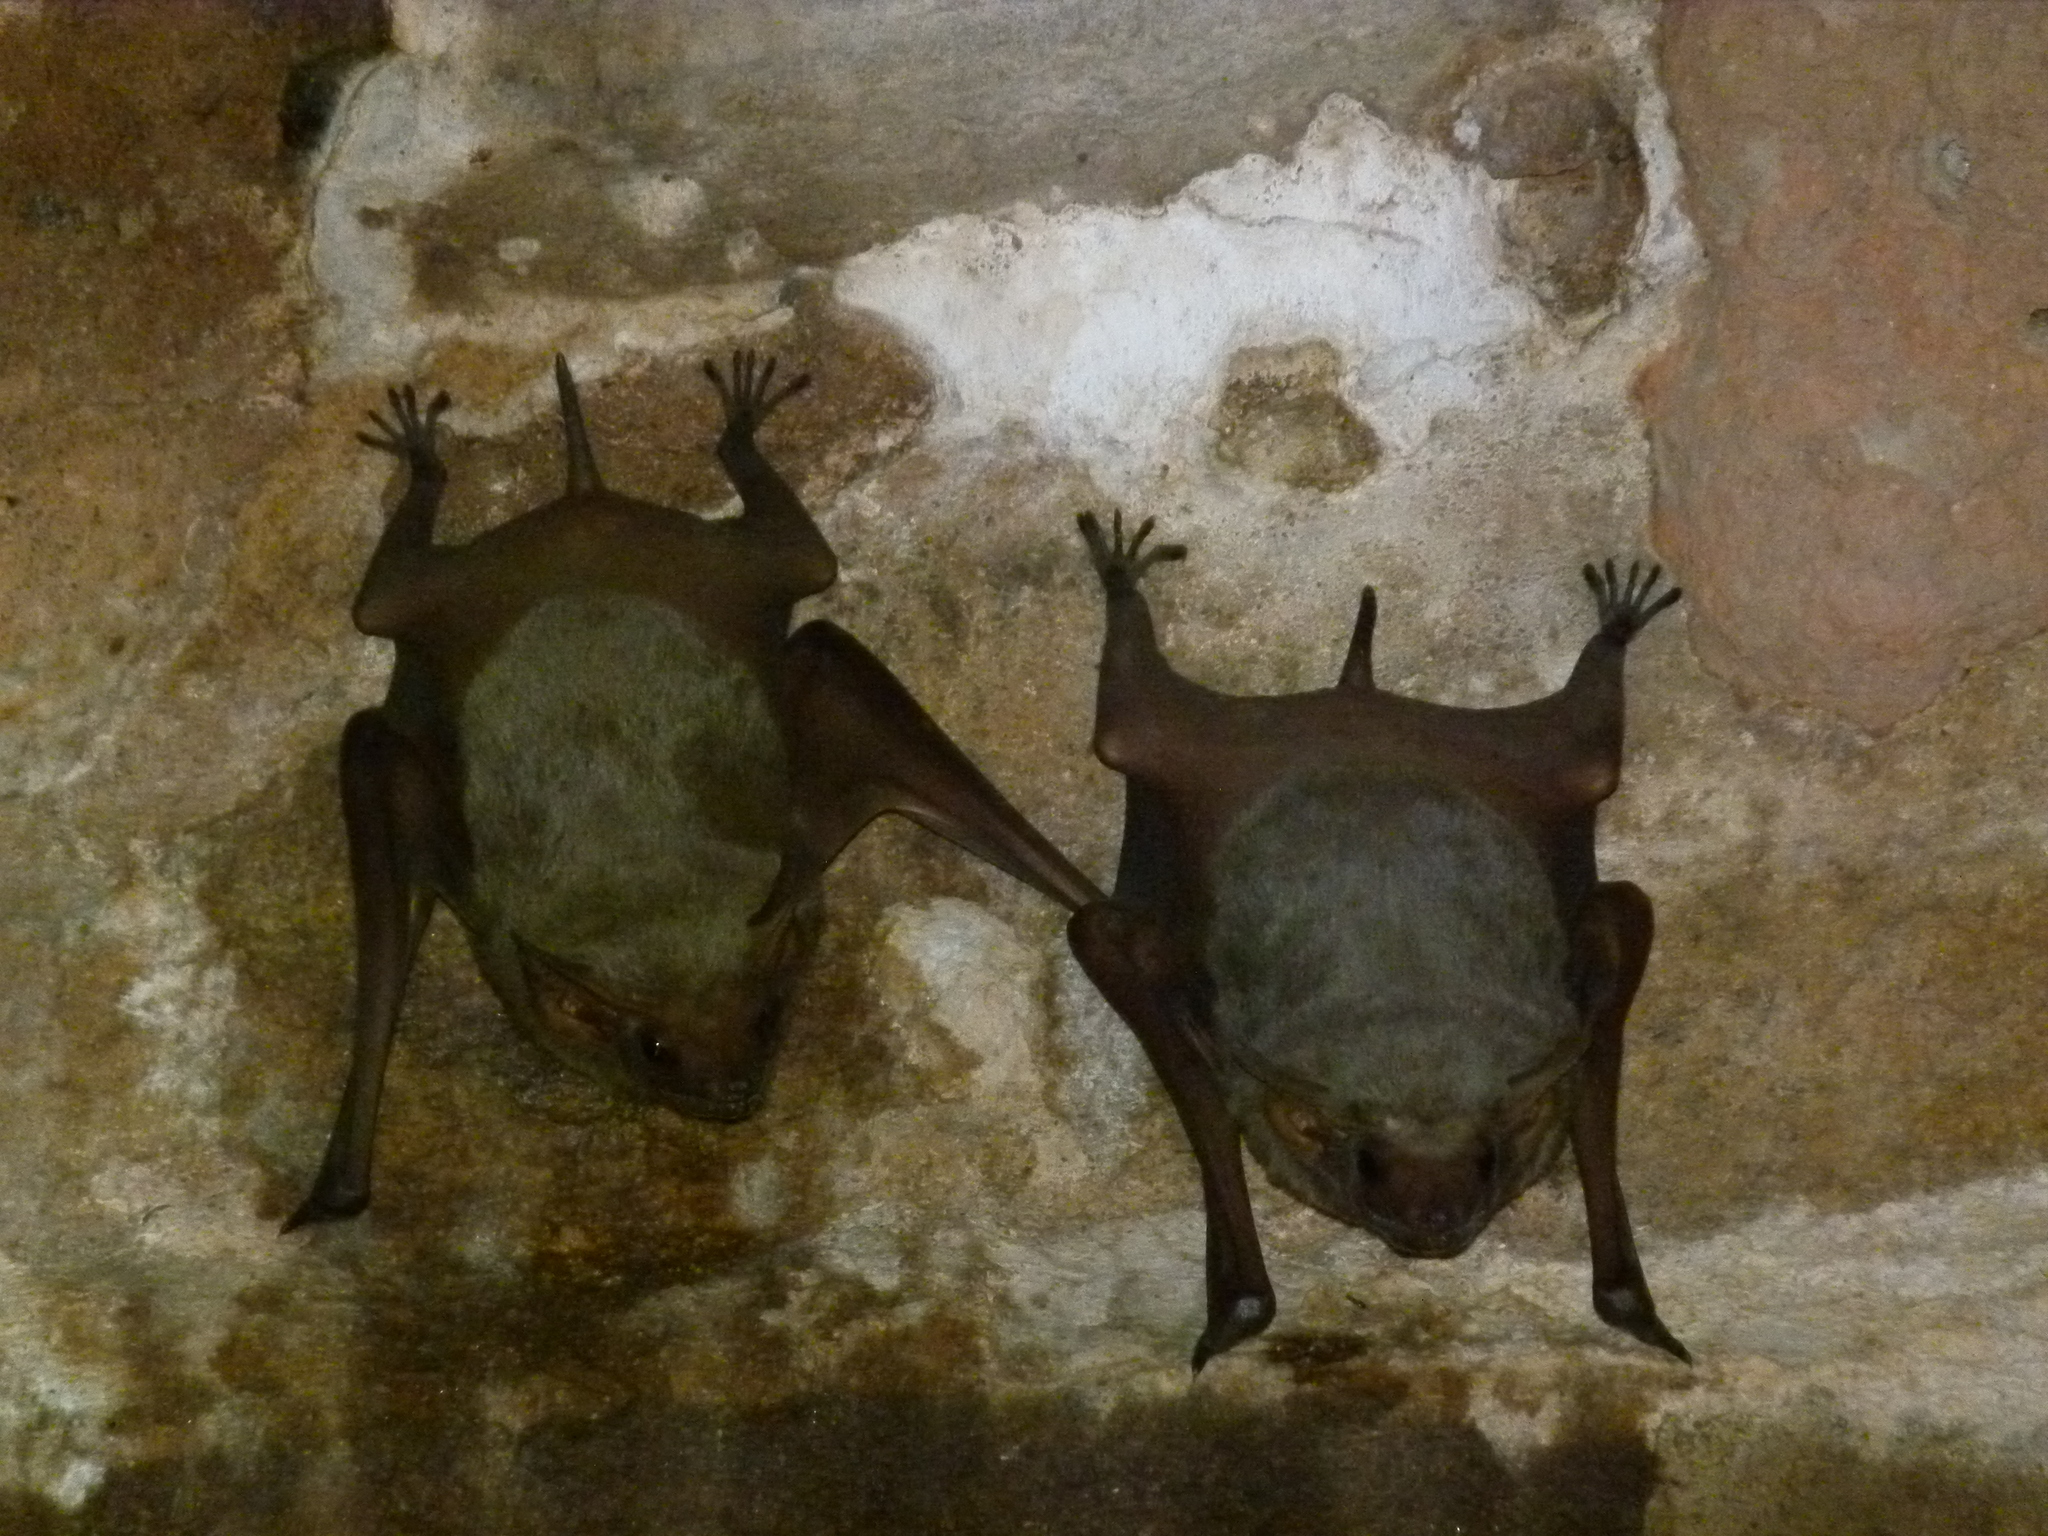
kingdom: Animalia
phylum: Chordata
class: Mammalia
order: Chiroptera
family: Emballonuridae
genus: Taphozous
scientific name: Taphozous nudiventris
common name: Naked-rumped tomb bat
